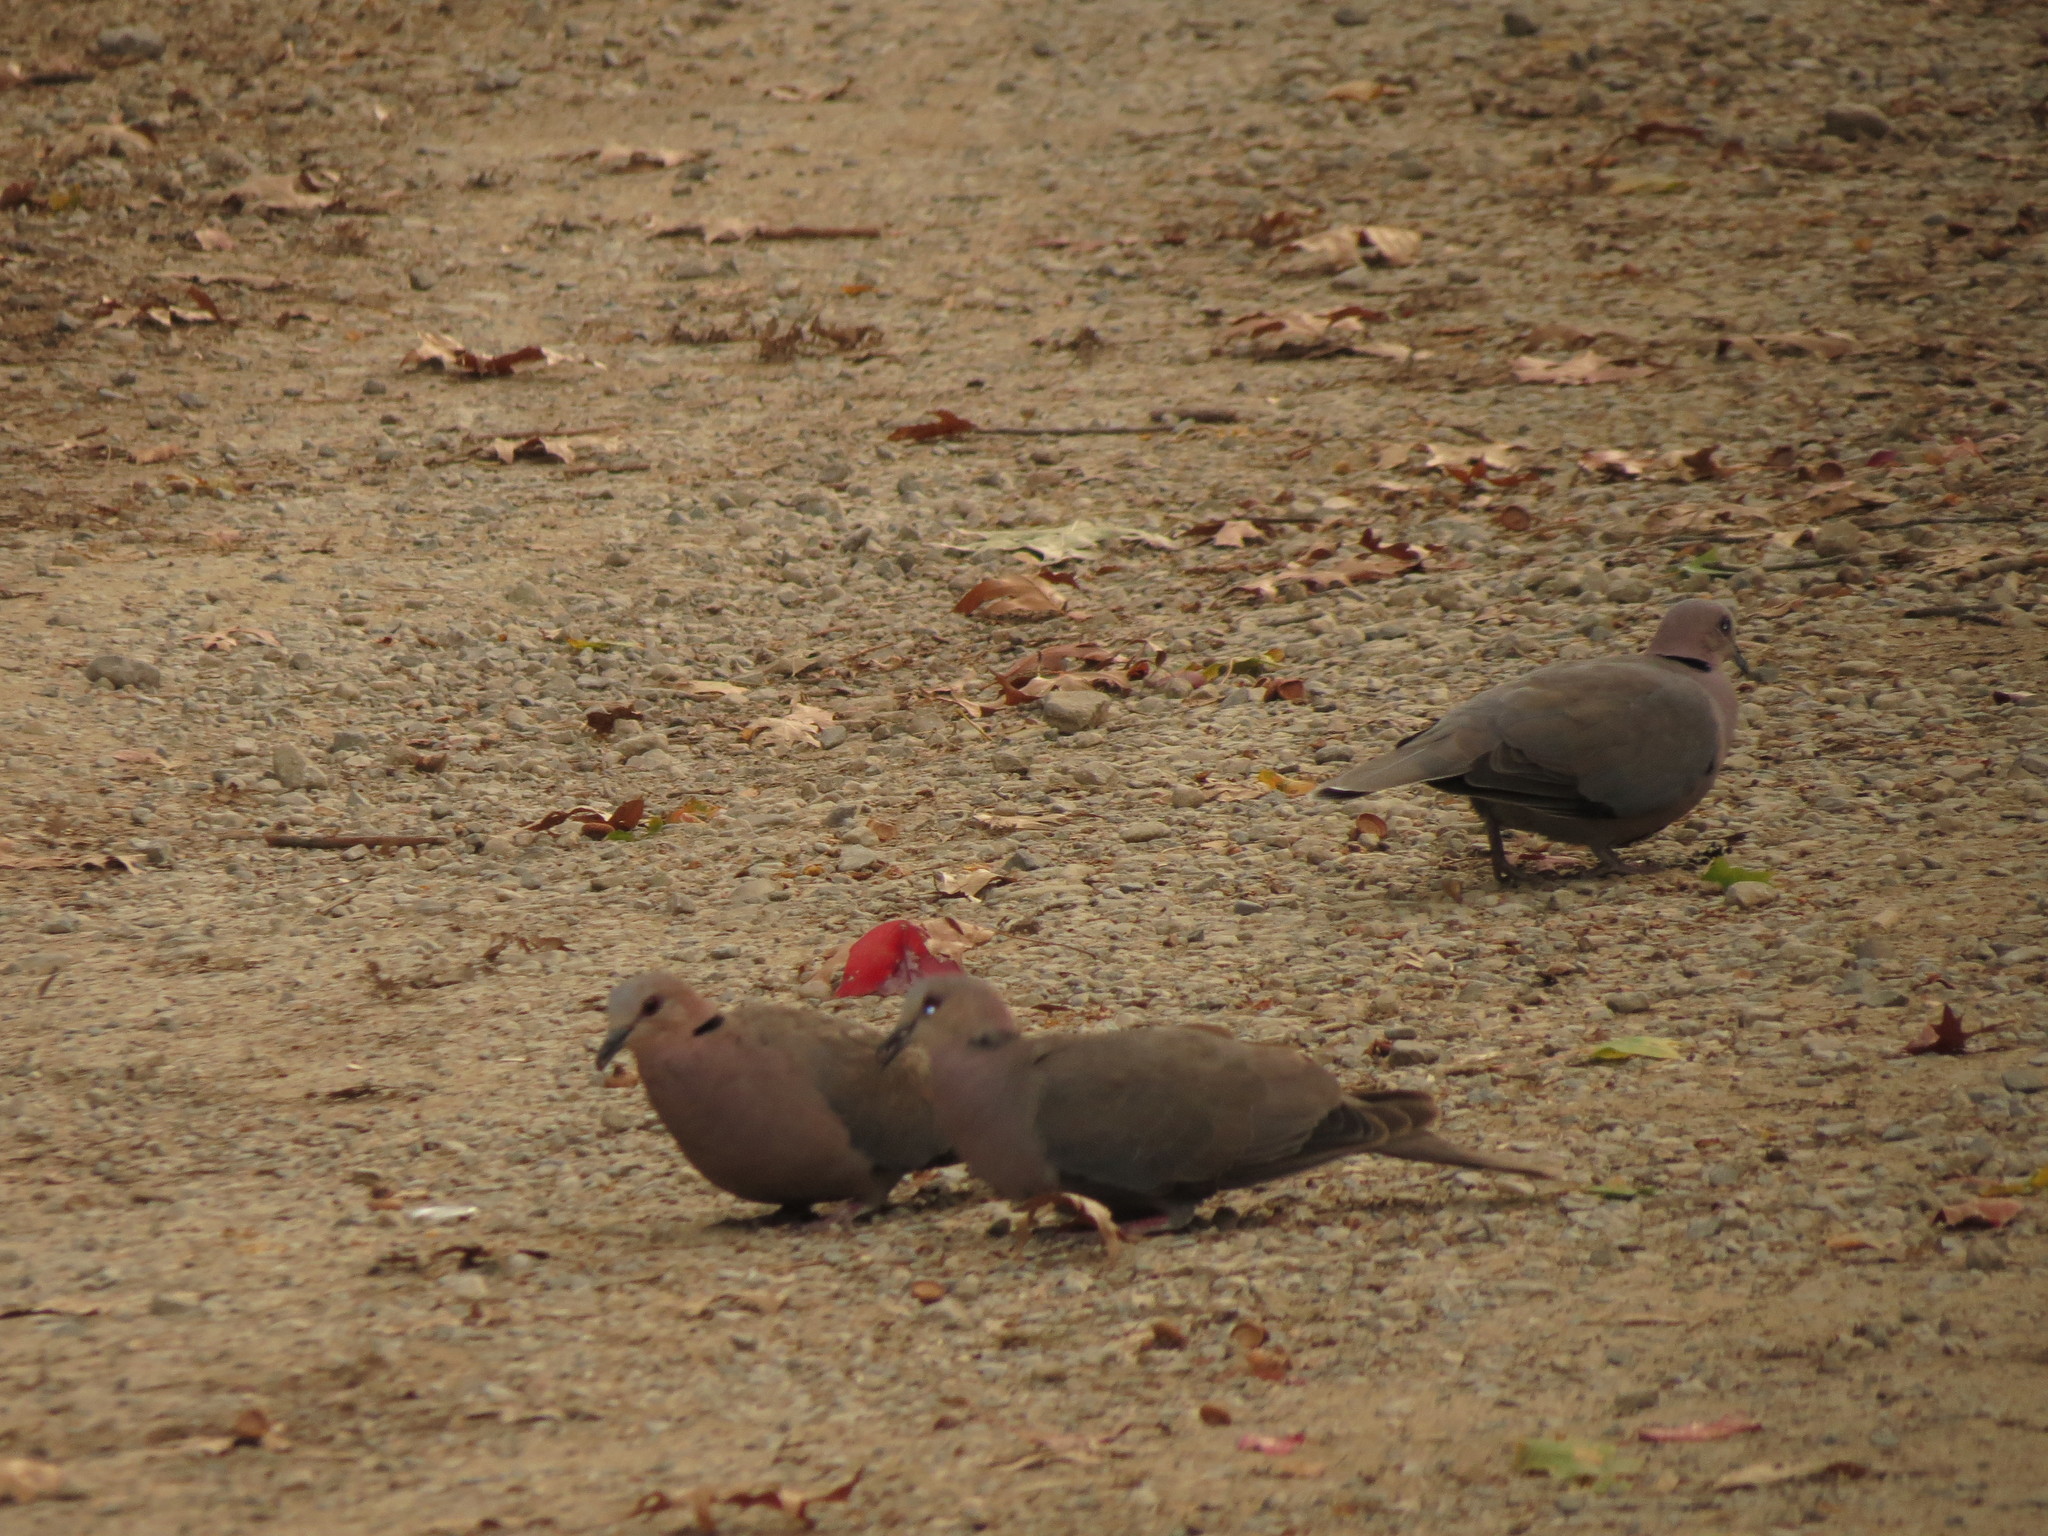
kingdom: Animalia
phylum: Chordata
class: Aves
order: Columbiformes
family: Columbidae
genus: Streptopelia
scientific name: Streptopelia semitorquata
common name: Red-eyed dove
